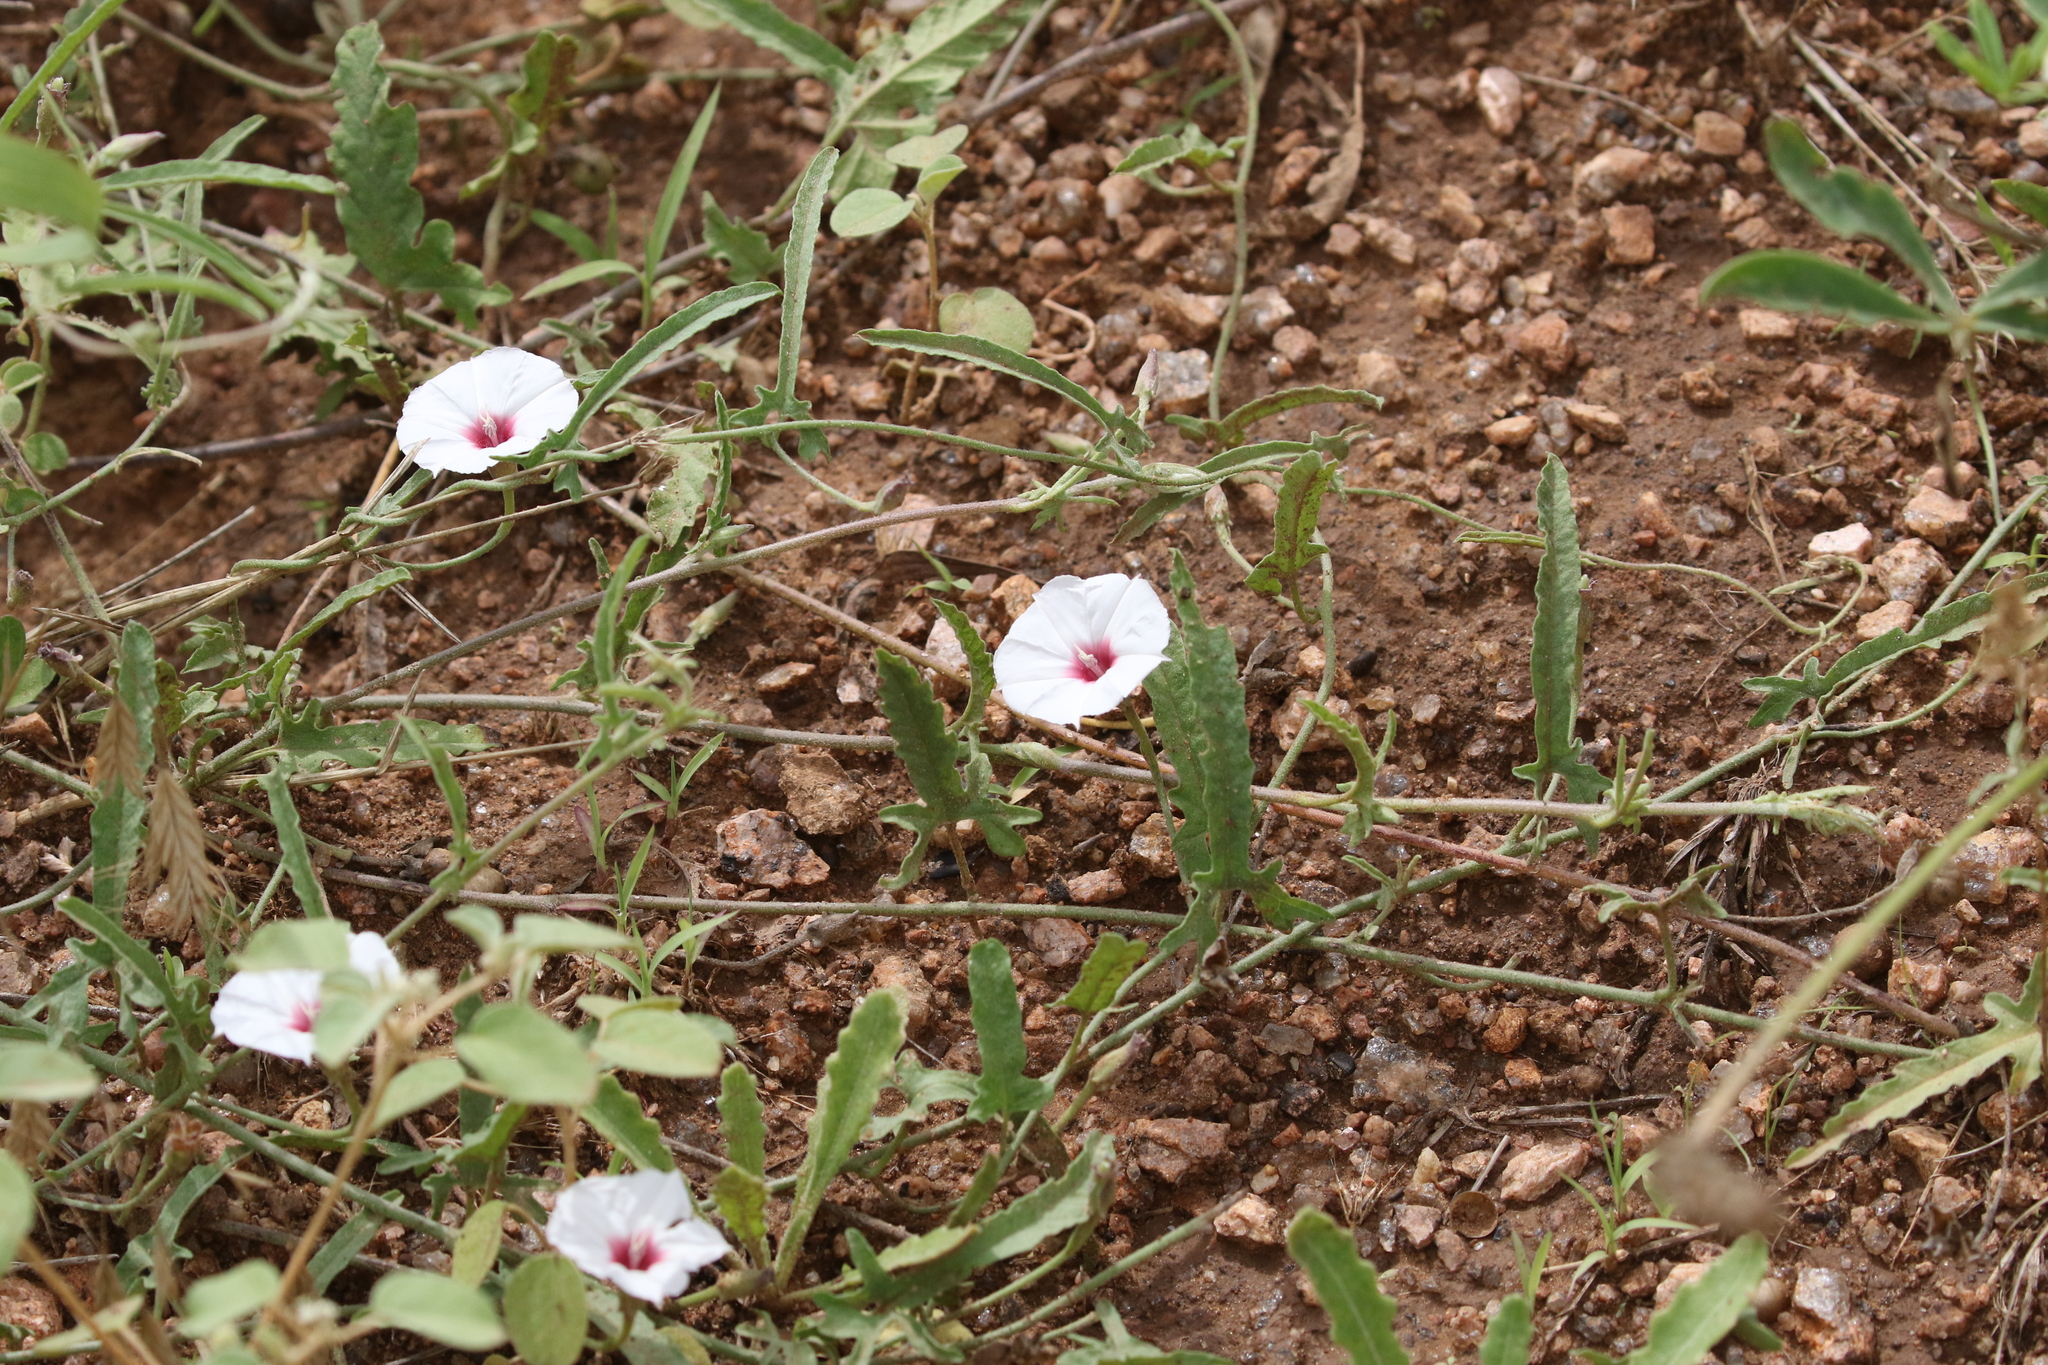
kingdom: Plantae
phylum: Tracheophyta
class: Magnoliopsida
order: Solanales
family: Convolvulaceae
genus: Convolvulus
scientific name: Convolvulus equitans
